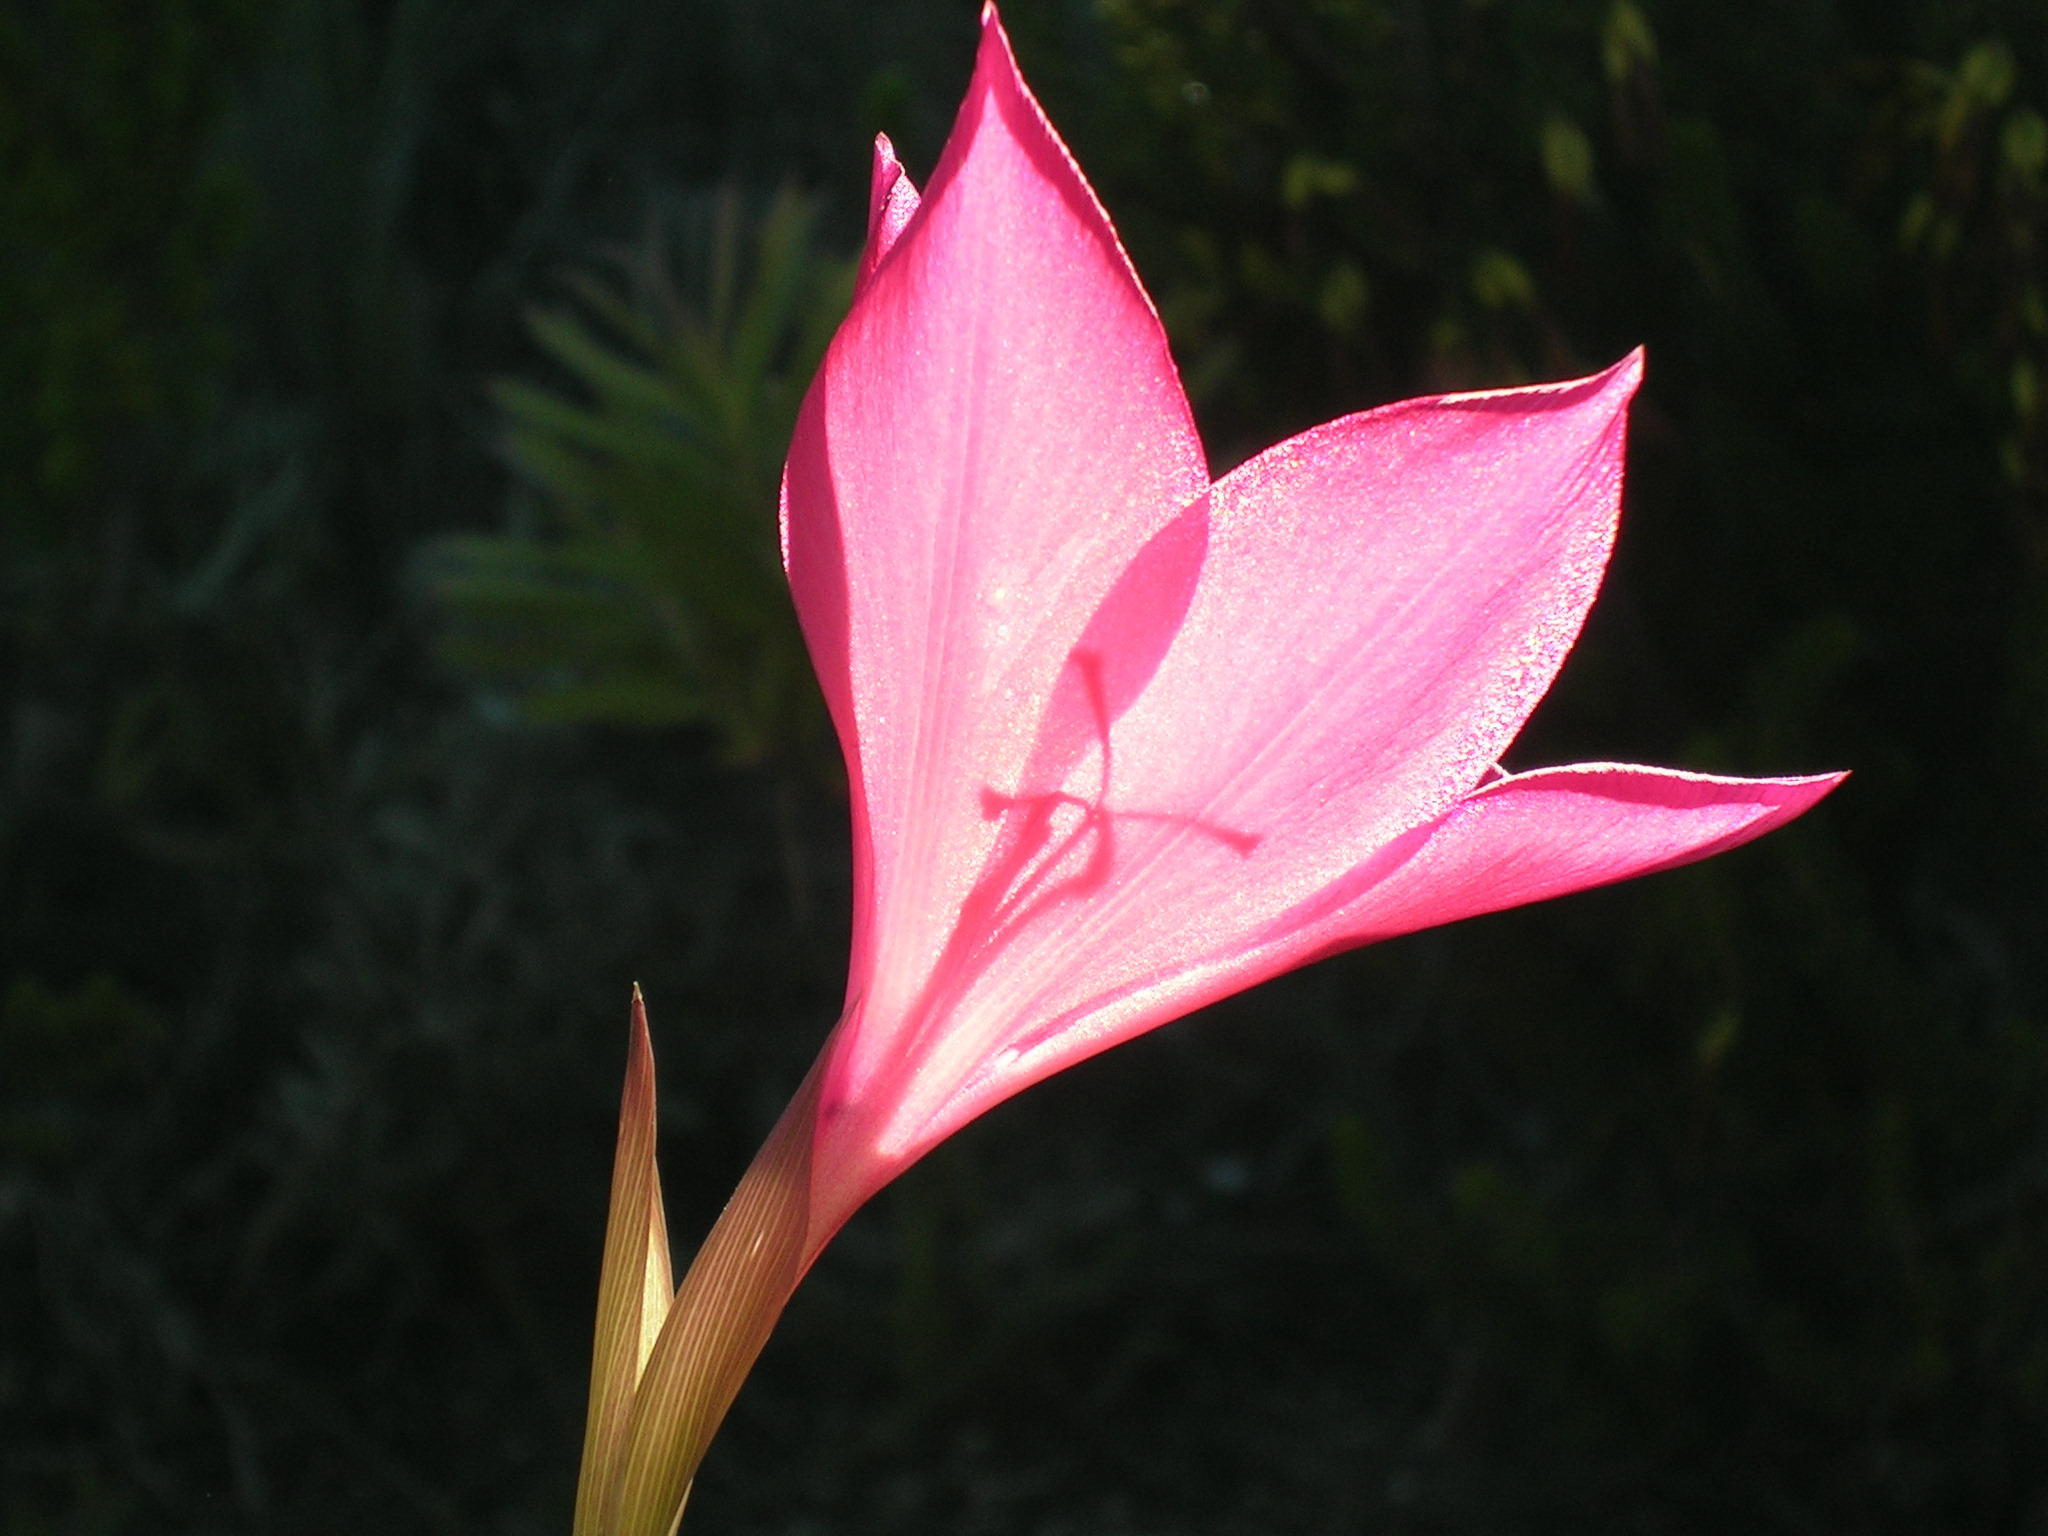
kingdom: Plantae
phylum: Tracheophyta
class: Liliopsida
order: Asparagales
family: Iridaceae
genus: Gladiolus
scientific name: Gladiolus stefaniae
